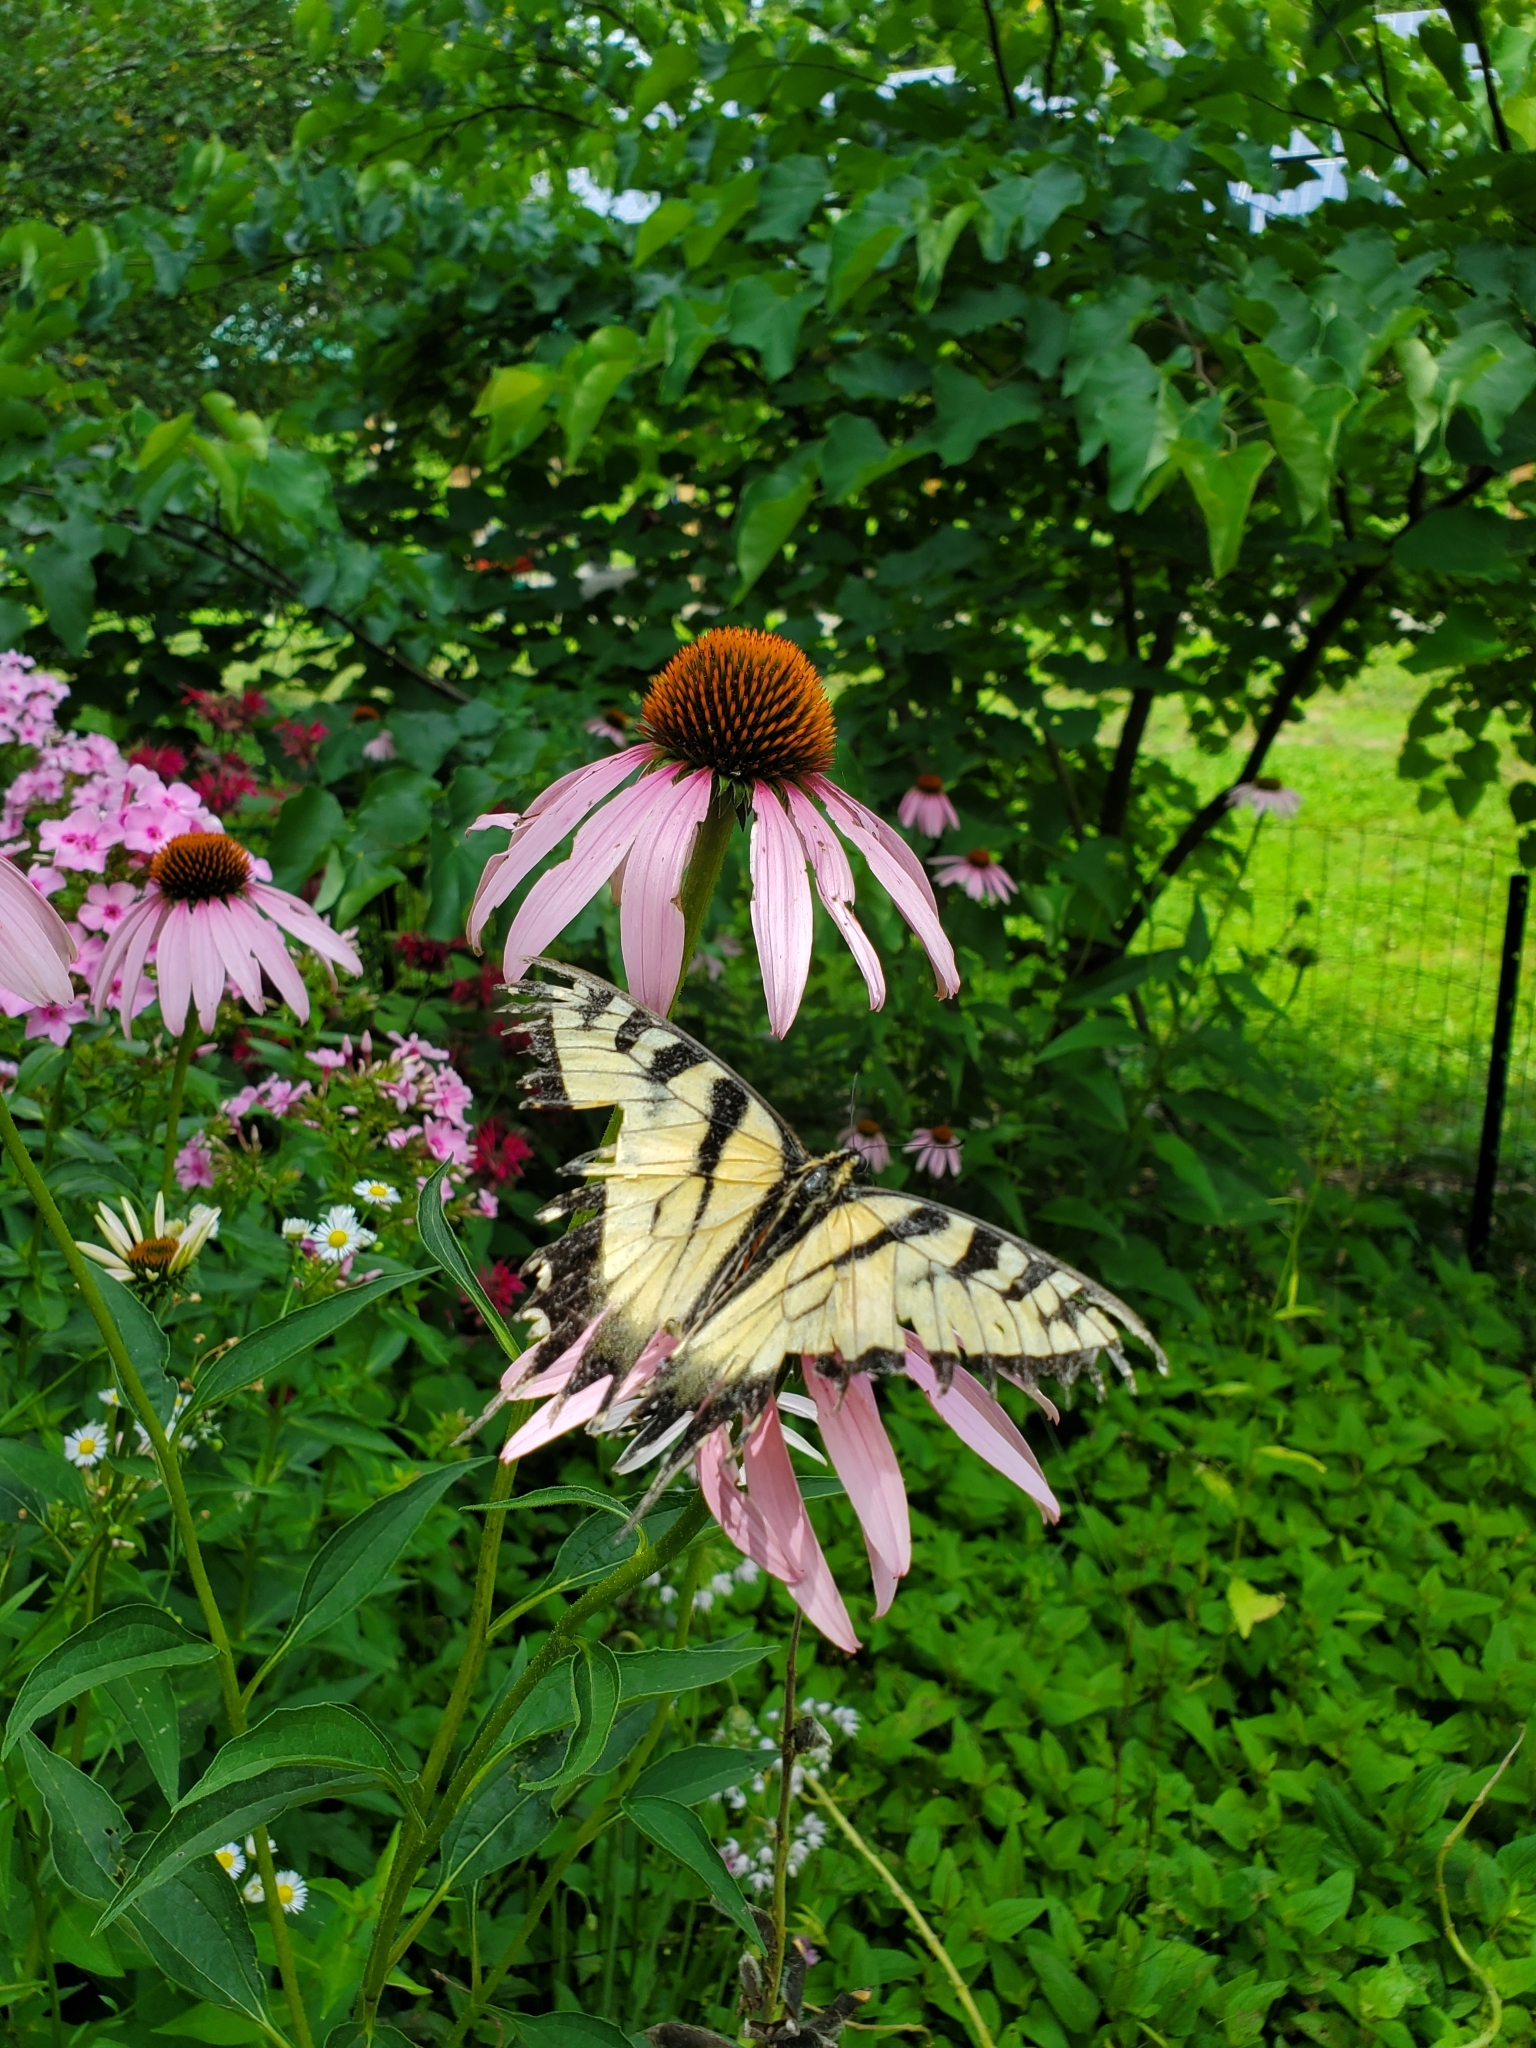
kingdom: Animalia
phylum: Arthropoda
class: Insecta
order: Lepidoptera
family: Papilionidae
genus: Papilio
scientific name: Papilio glaucus
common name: Tiger swallowtail
